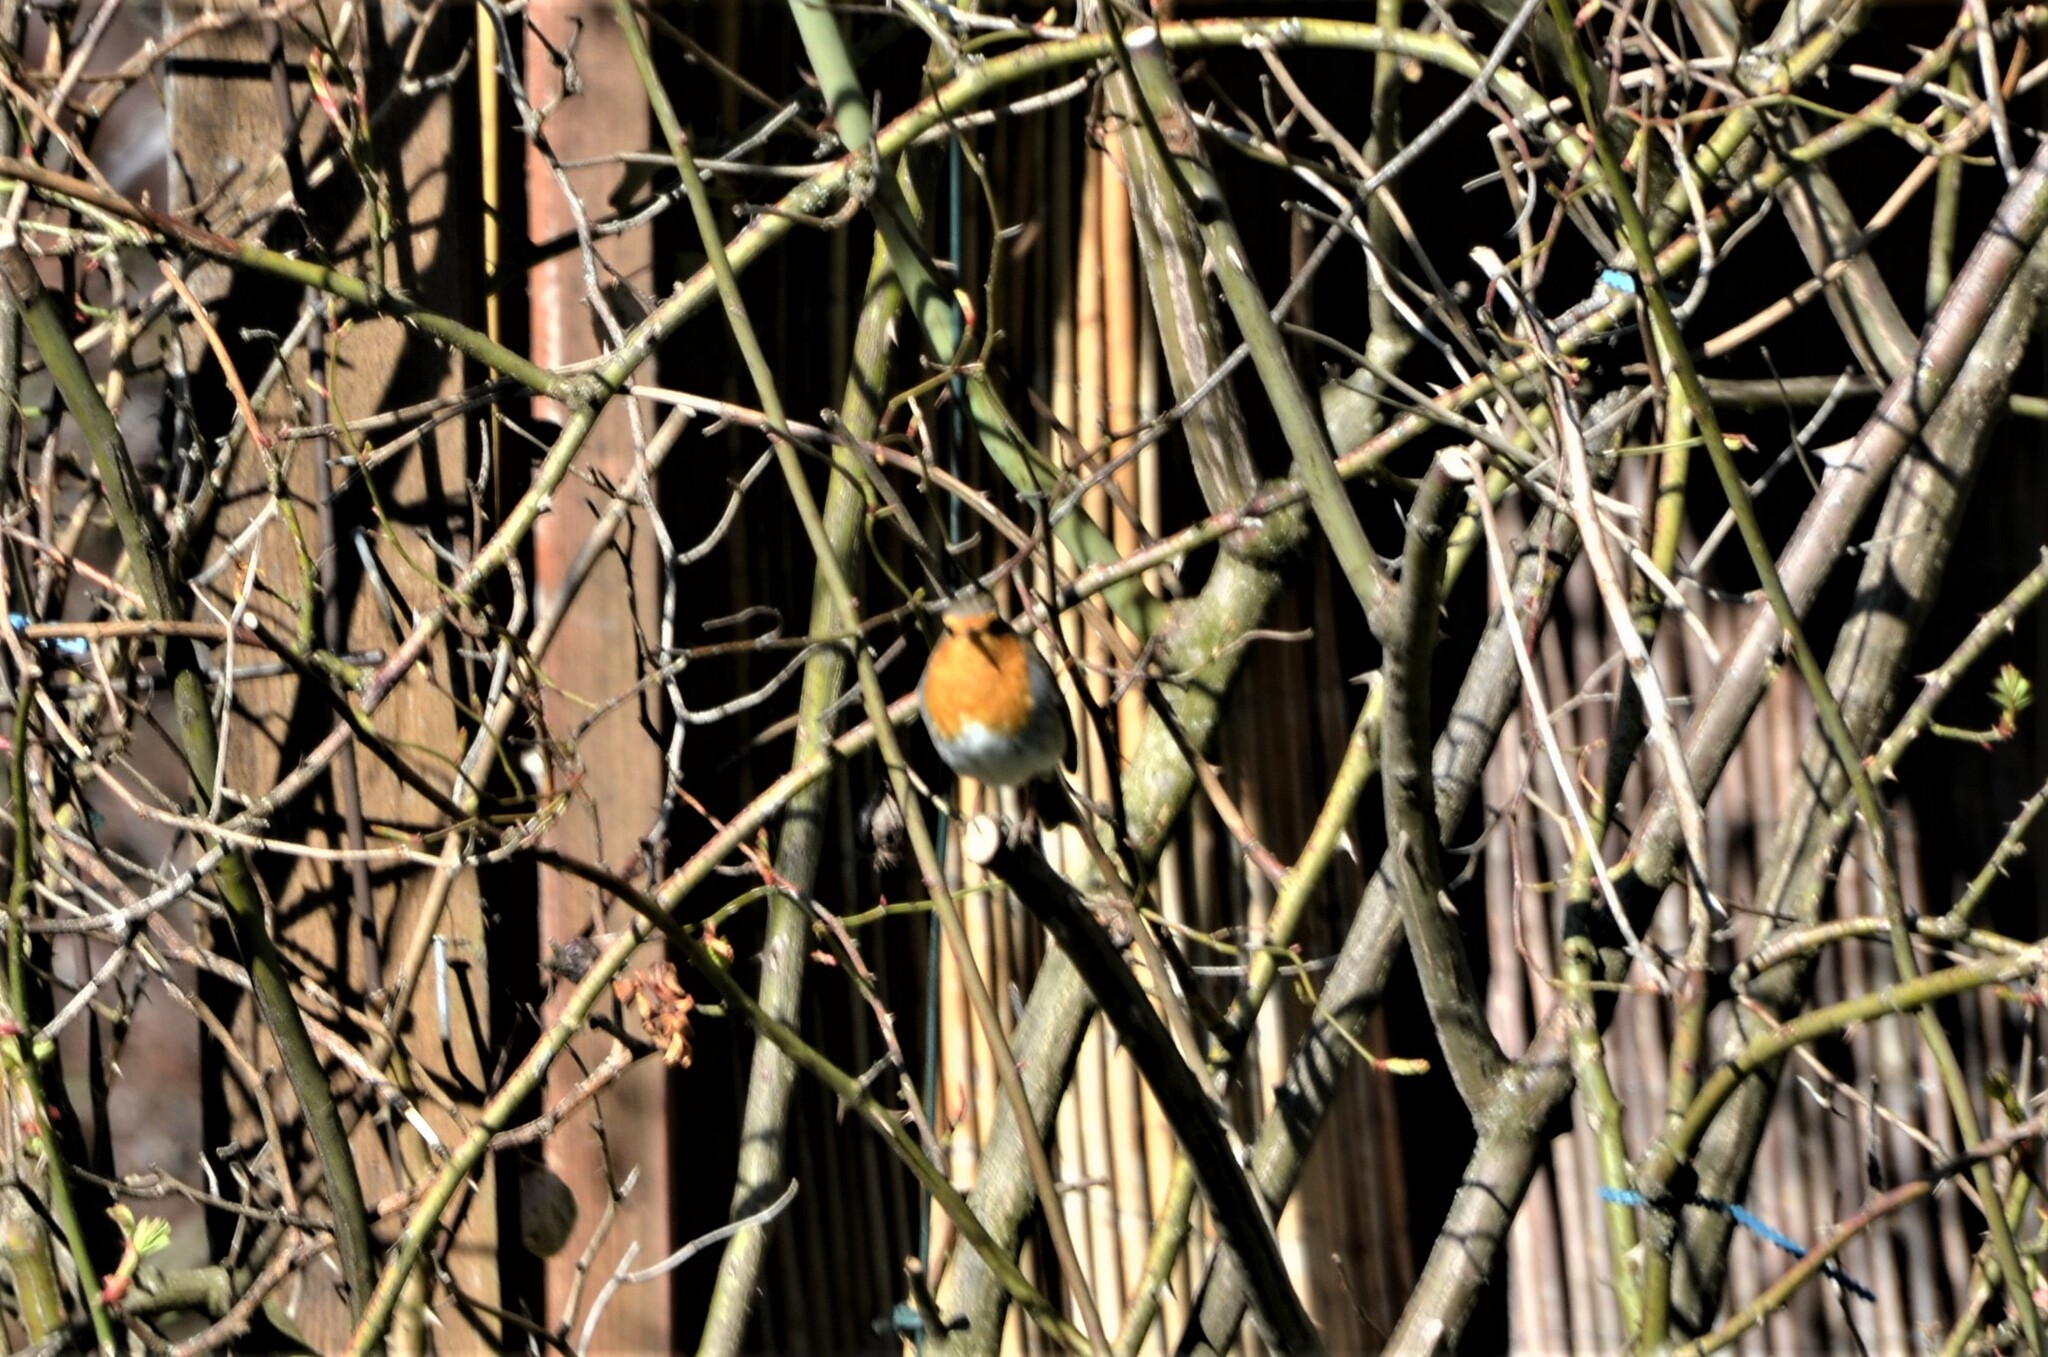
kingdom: Animalia
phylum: Chordata
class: Aves
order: Passeriformes
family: Muscicapidae
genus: Erithacus
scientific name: Erithacus rubecula
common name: European robin
